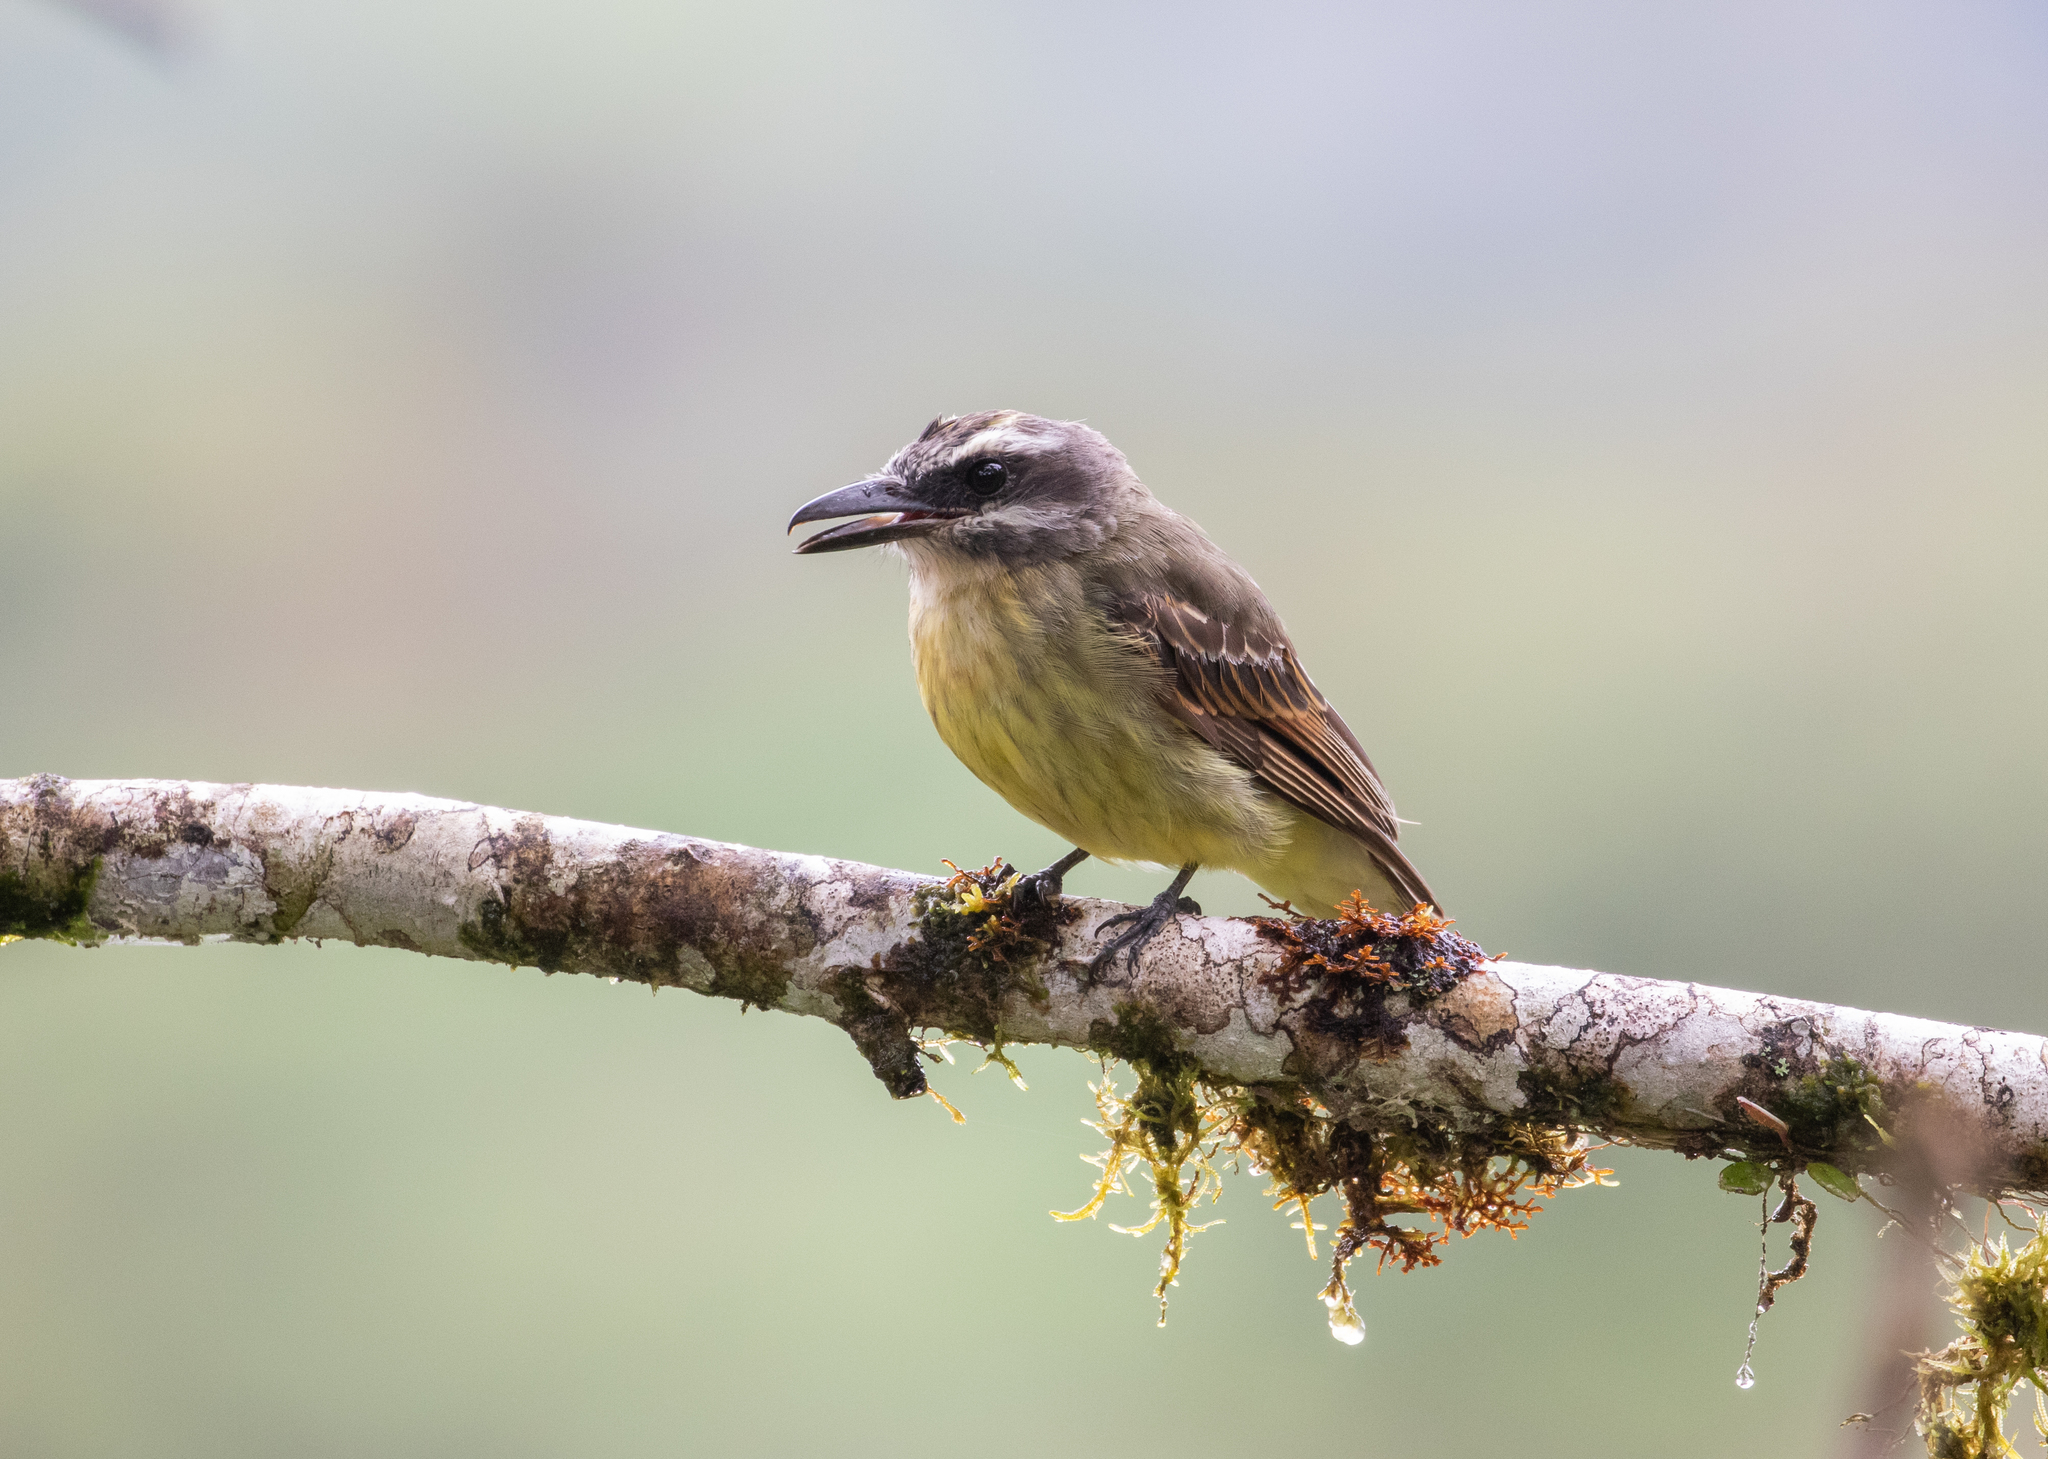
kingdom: Animalia
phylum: Chordata
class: Aves
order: Passeriformes
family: Tyrannidae
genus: Myiodynastes
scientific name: Myiodynastes hemichrysus
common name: Golden-bellied flycatcher
